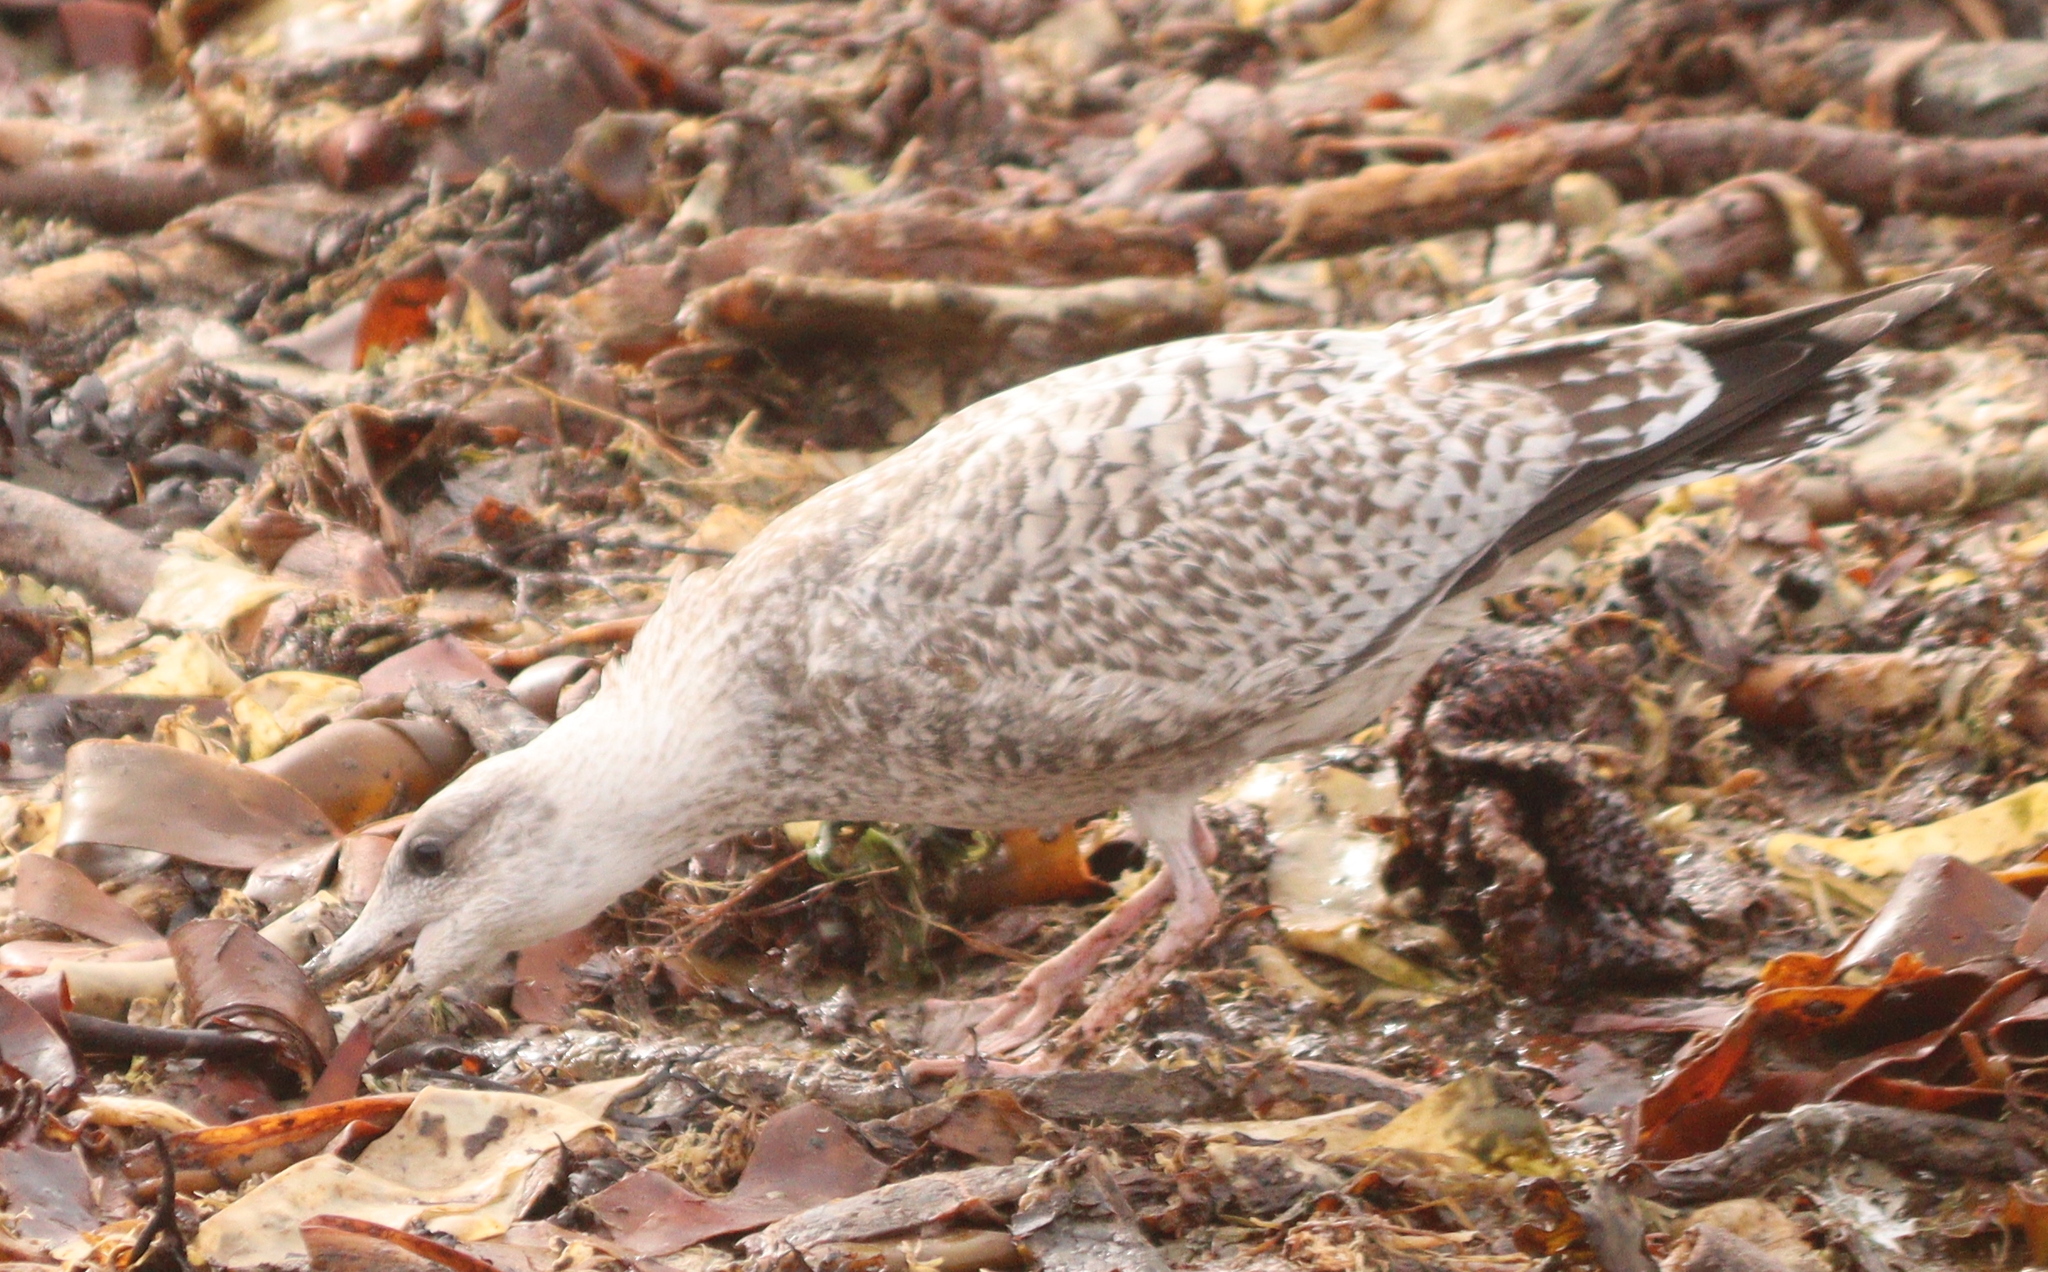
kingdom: Animalia
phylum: Chordata
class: Aves
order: Charadriiformes
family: Laridae
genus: Larus
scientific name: Larus argentatus
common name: Herring gull
